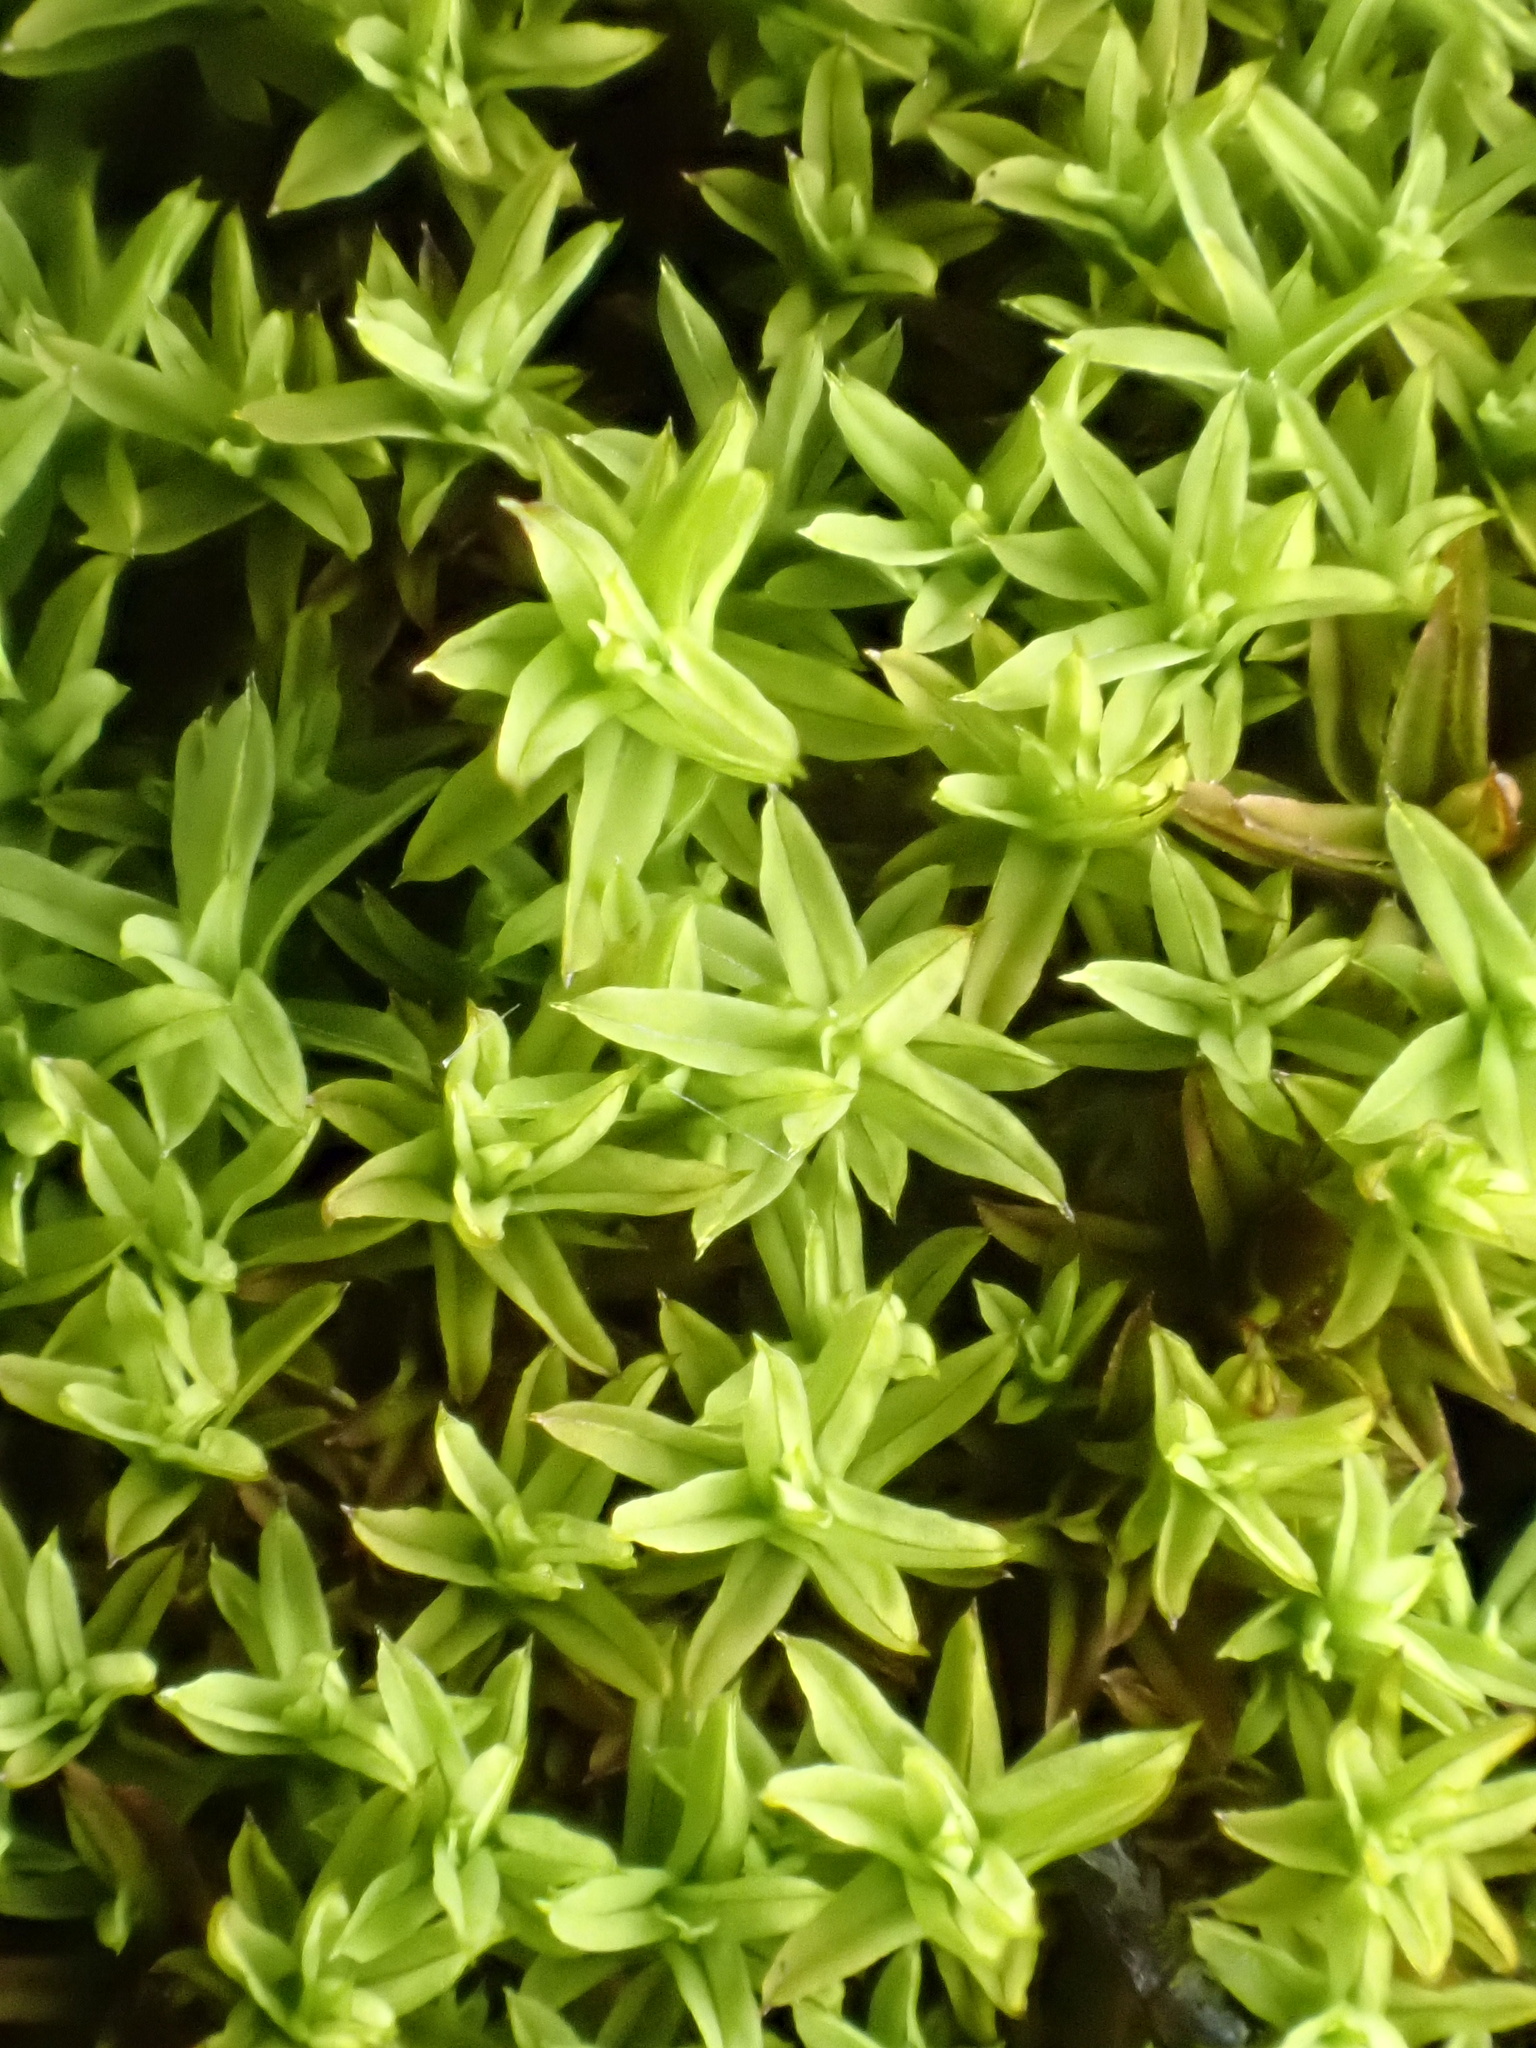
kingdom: Plantae
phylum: Bryophyta
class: Bryopsida
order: Pottiales
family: Pottiaceae
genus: Barbula
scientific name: Barbula unguiculata
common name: Prickly beard moss
